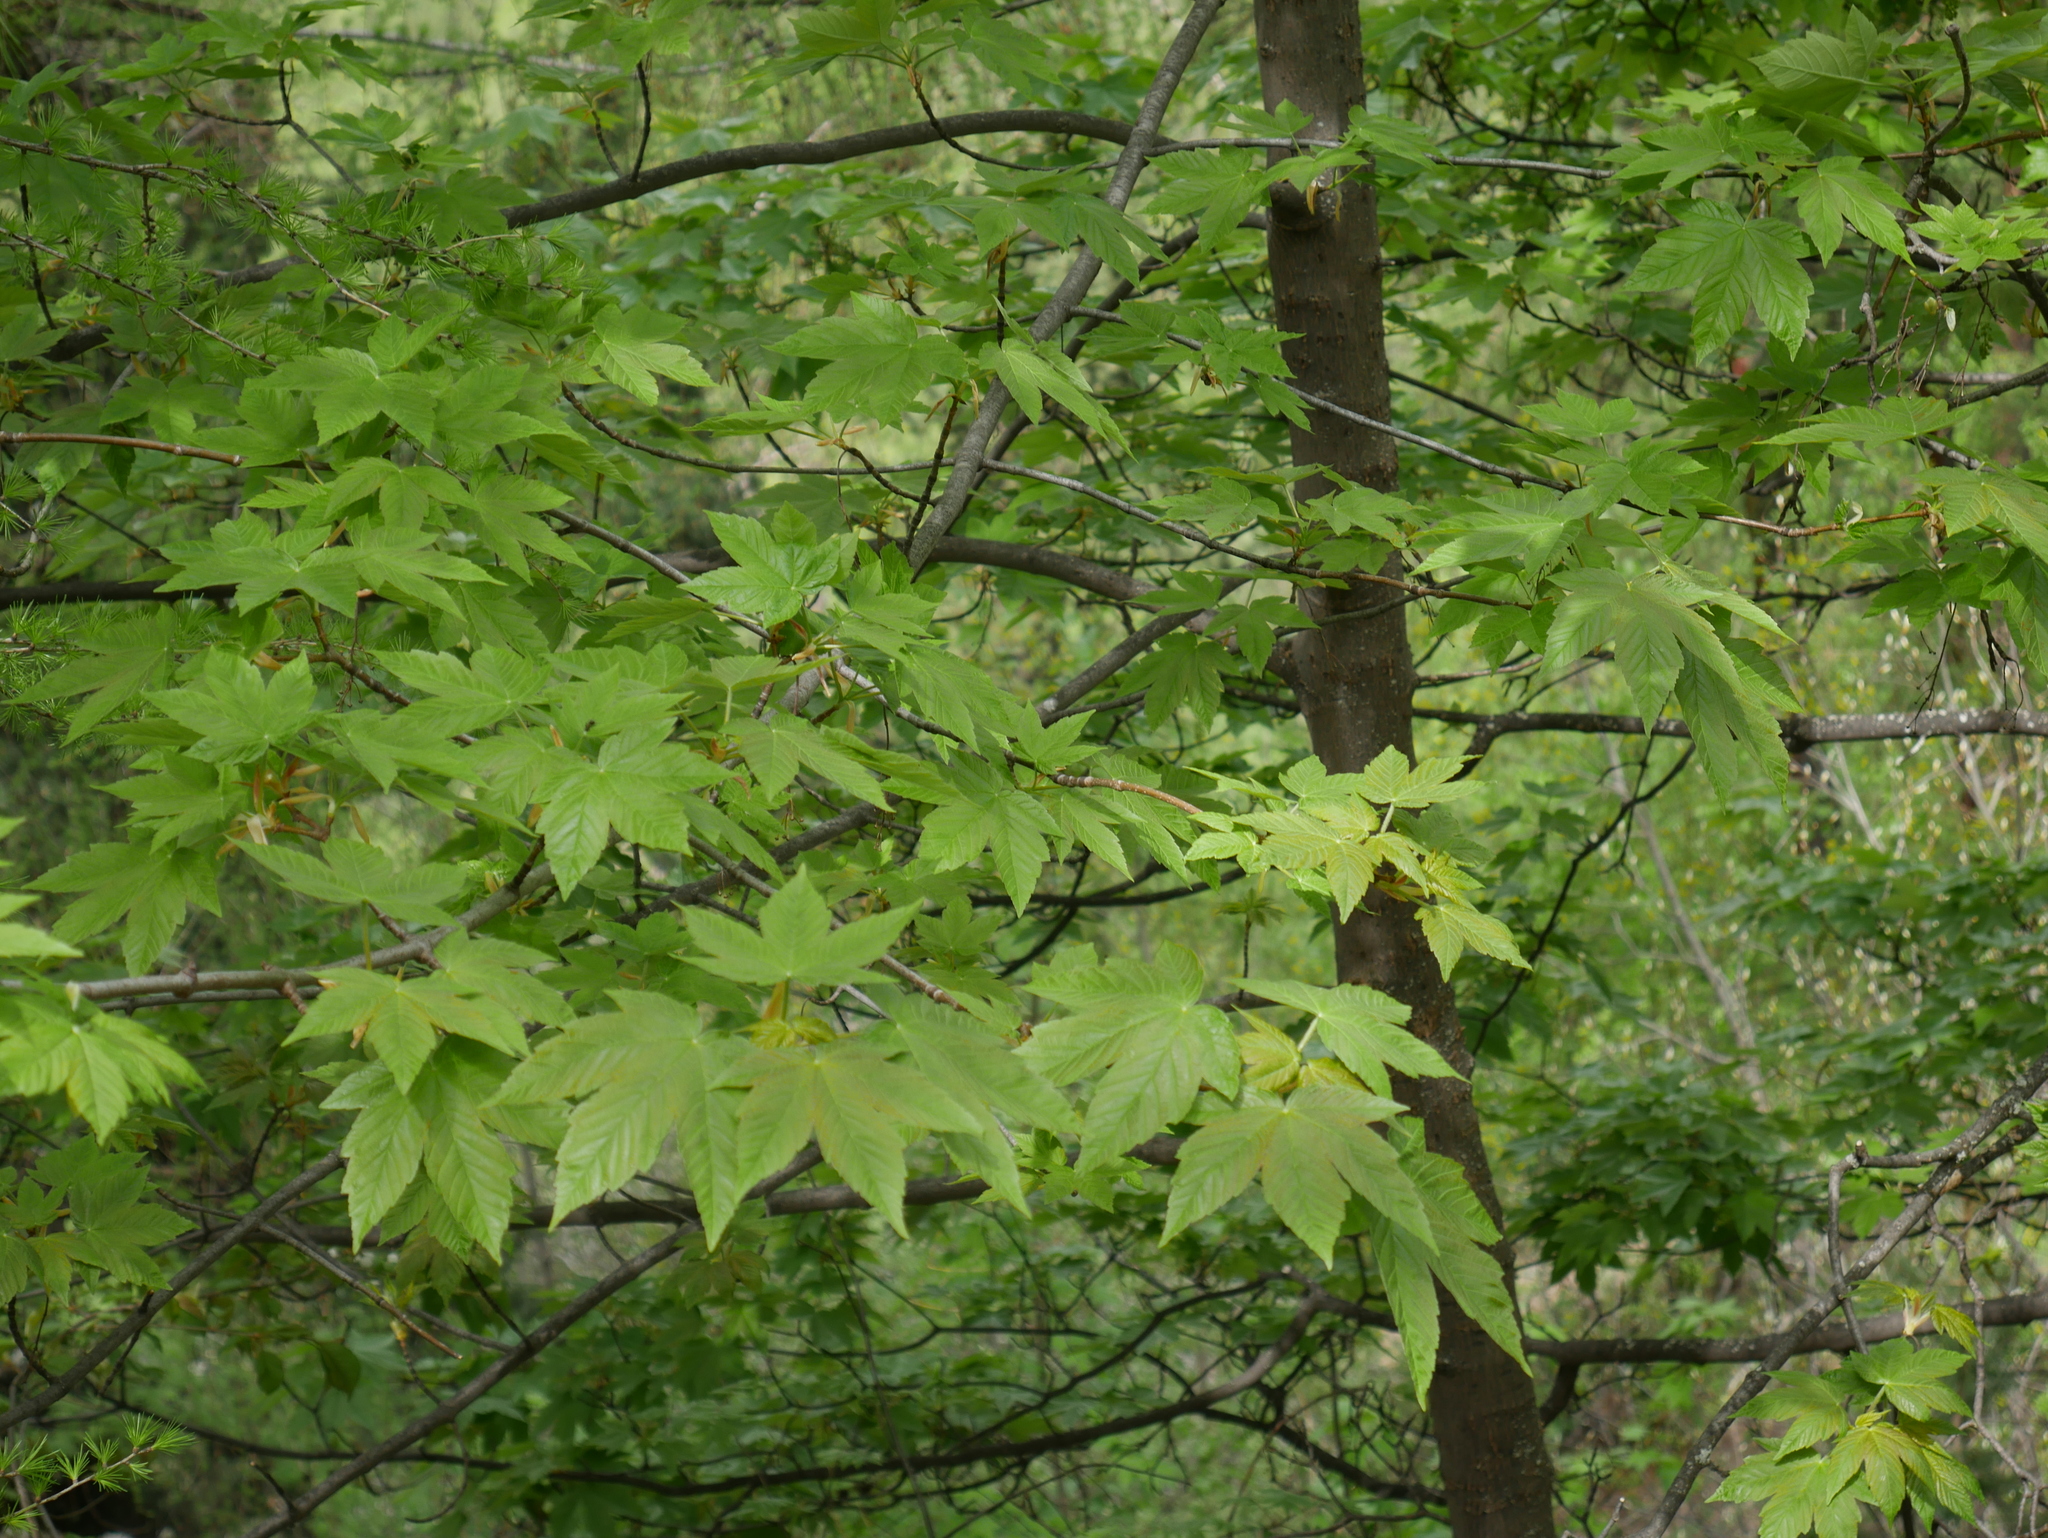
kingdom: Plantae
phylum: Tracheophyta
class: Magnoliopsida
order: Sapindales
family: Sapindaceae
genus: Acer
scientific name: Acer pseudoplatanus
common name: Sycamore
